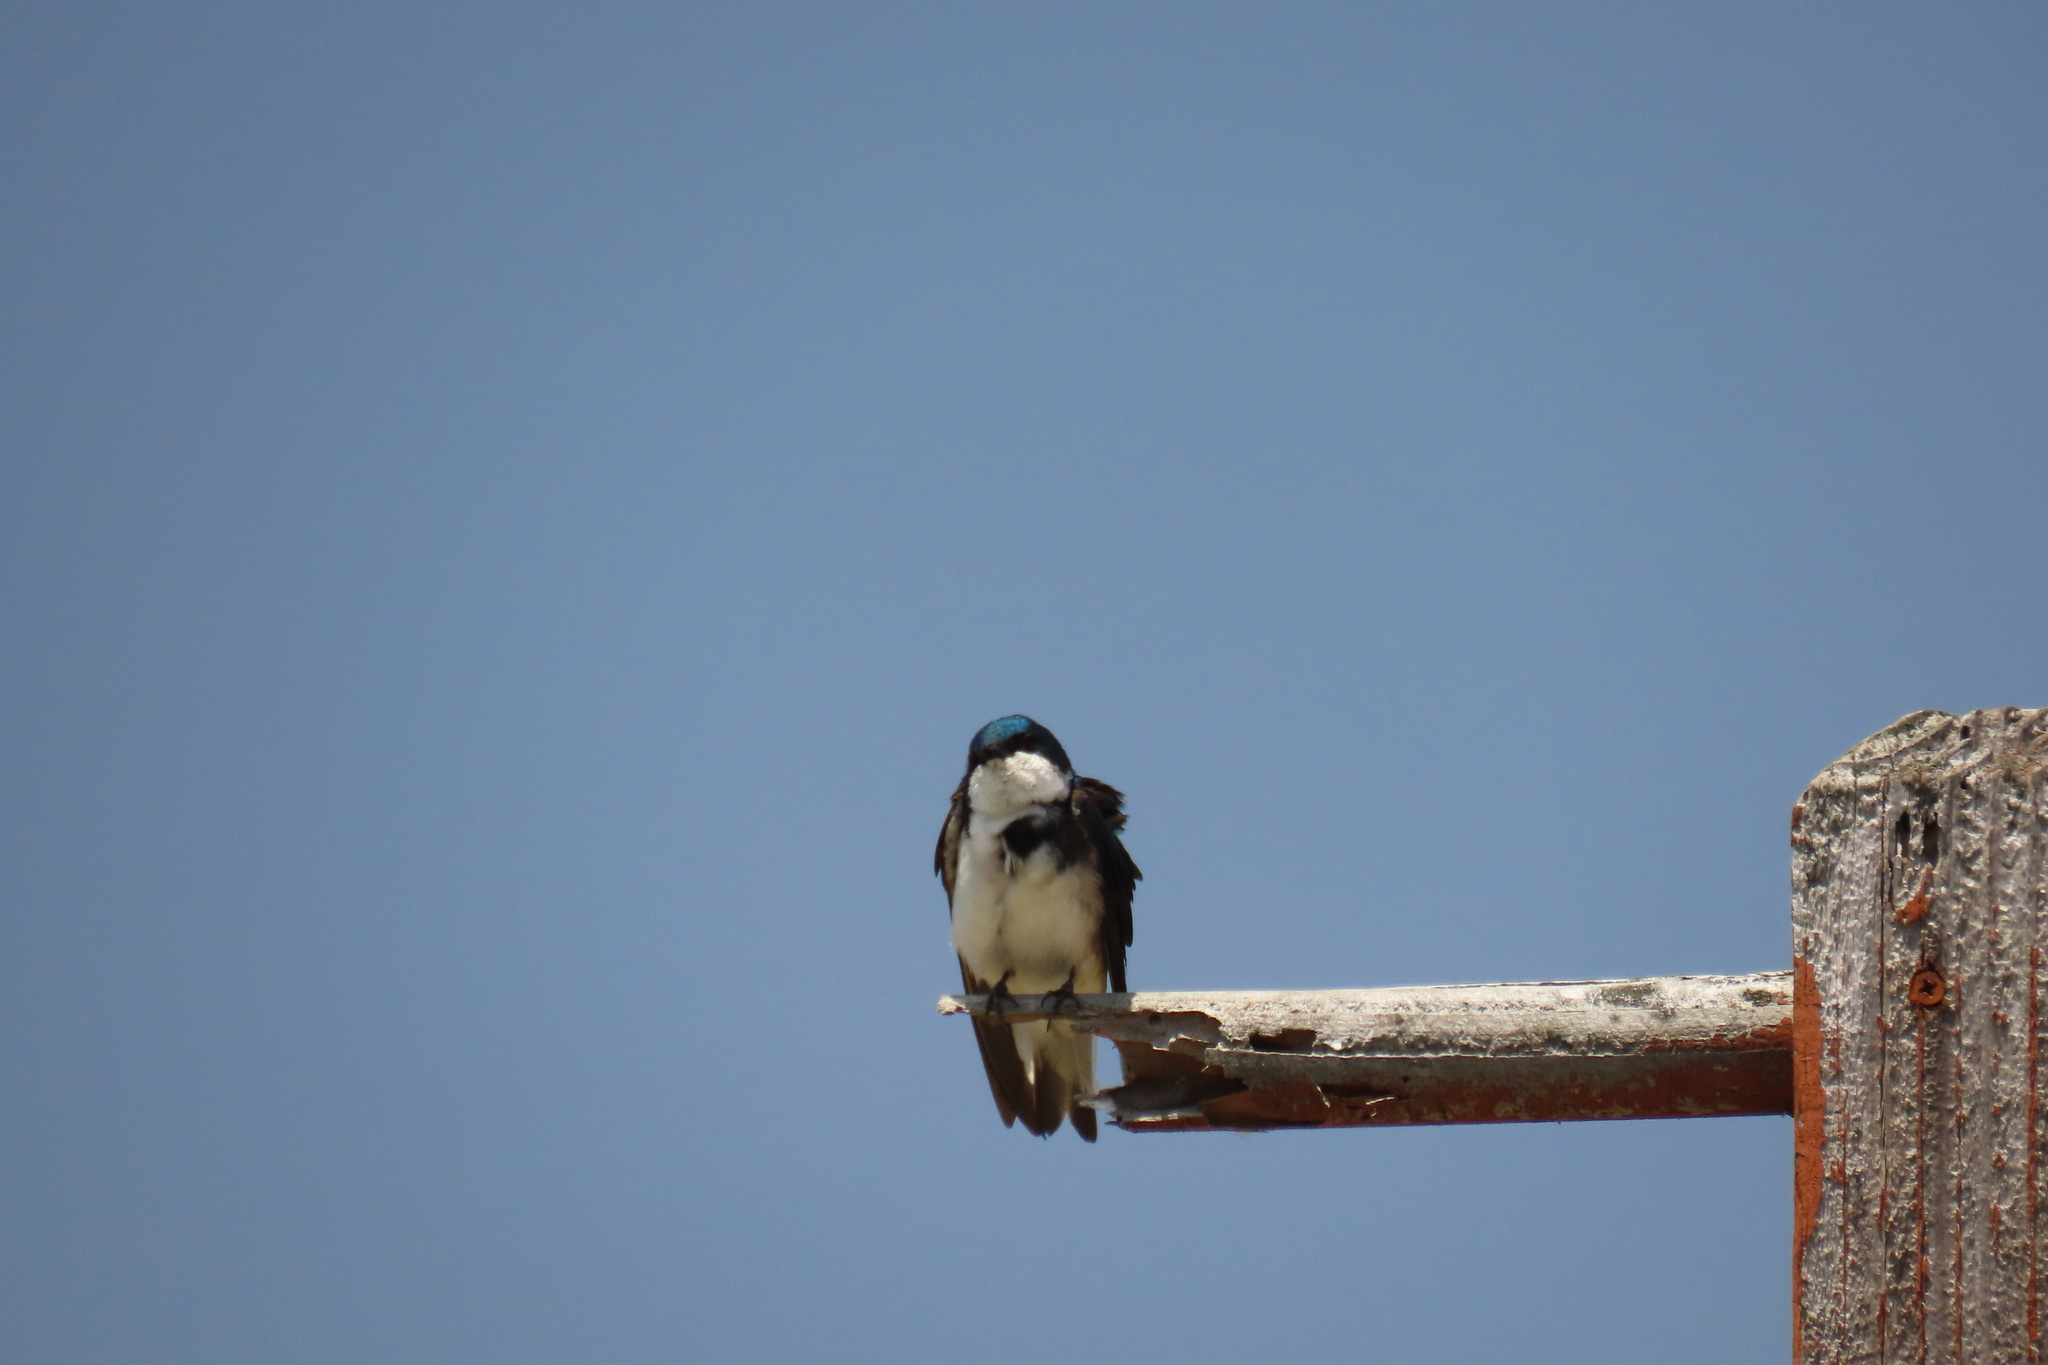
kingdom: Animalia
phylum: Chordata
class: Aves
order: Passeriformes
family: Hirundinidae
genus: Tachycineta
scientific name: Tachycineta bicolor
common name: Tree swallow
